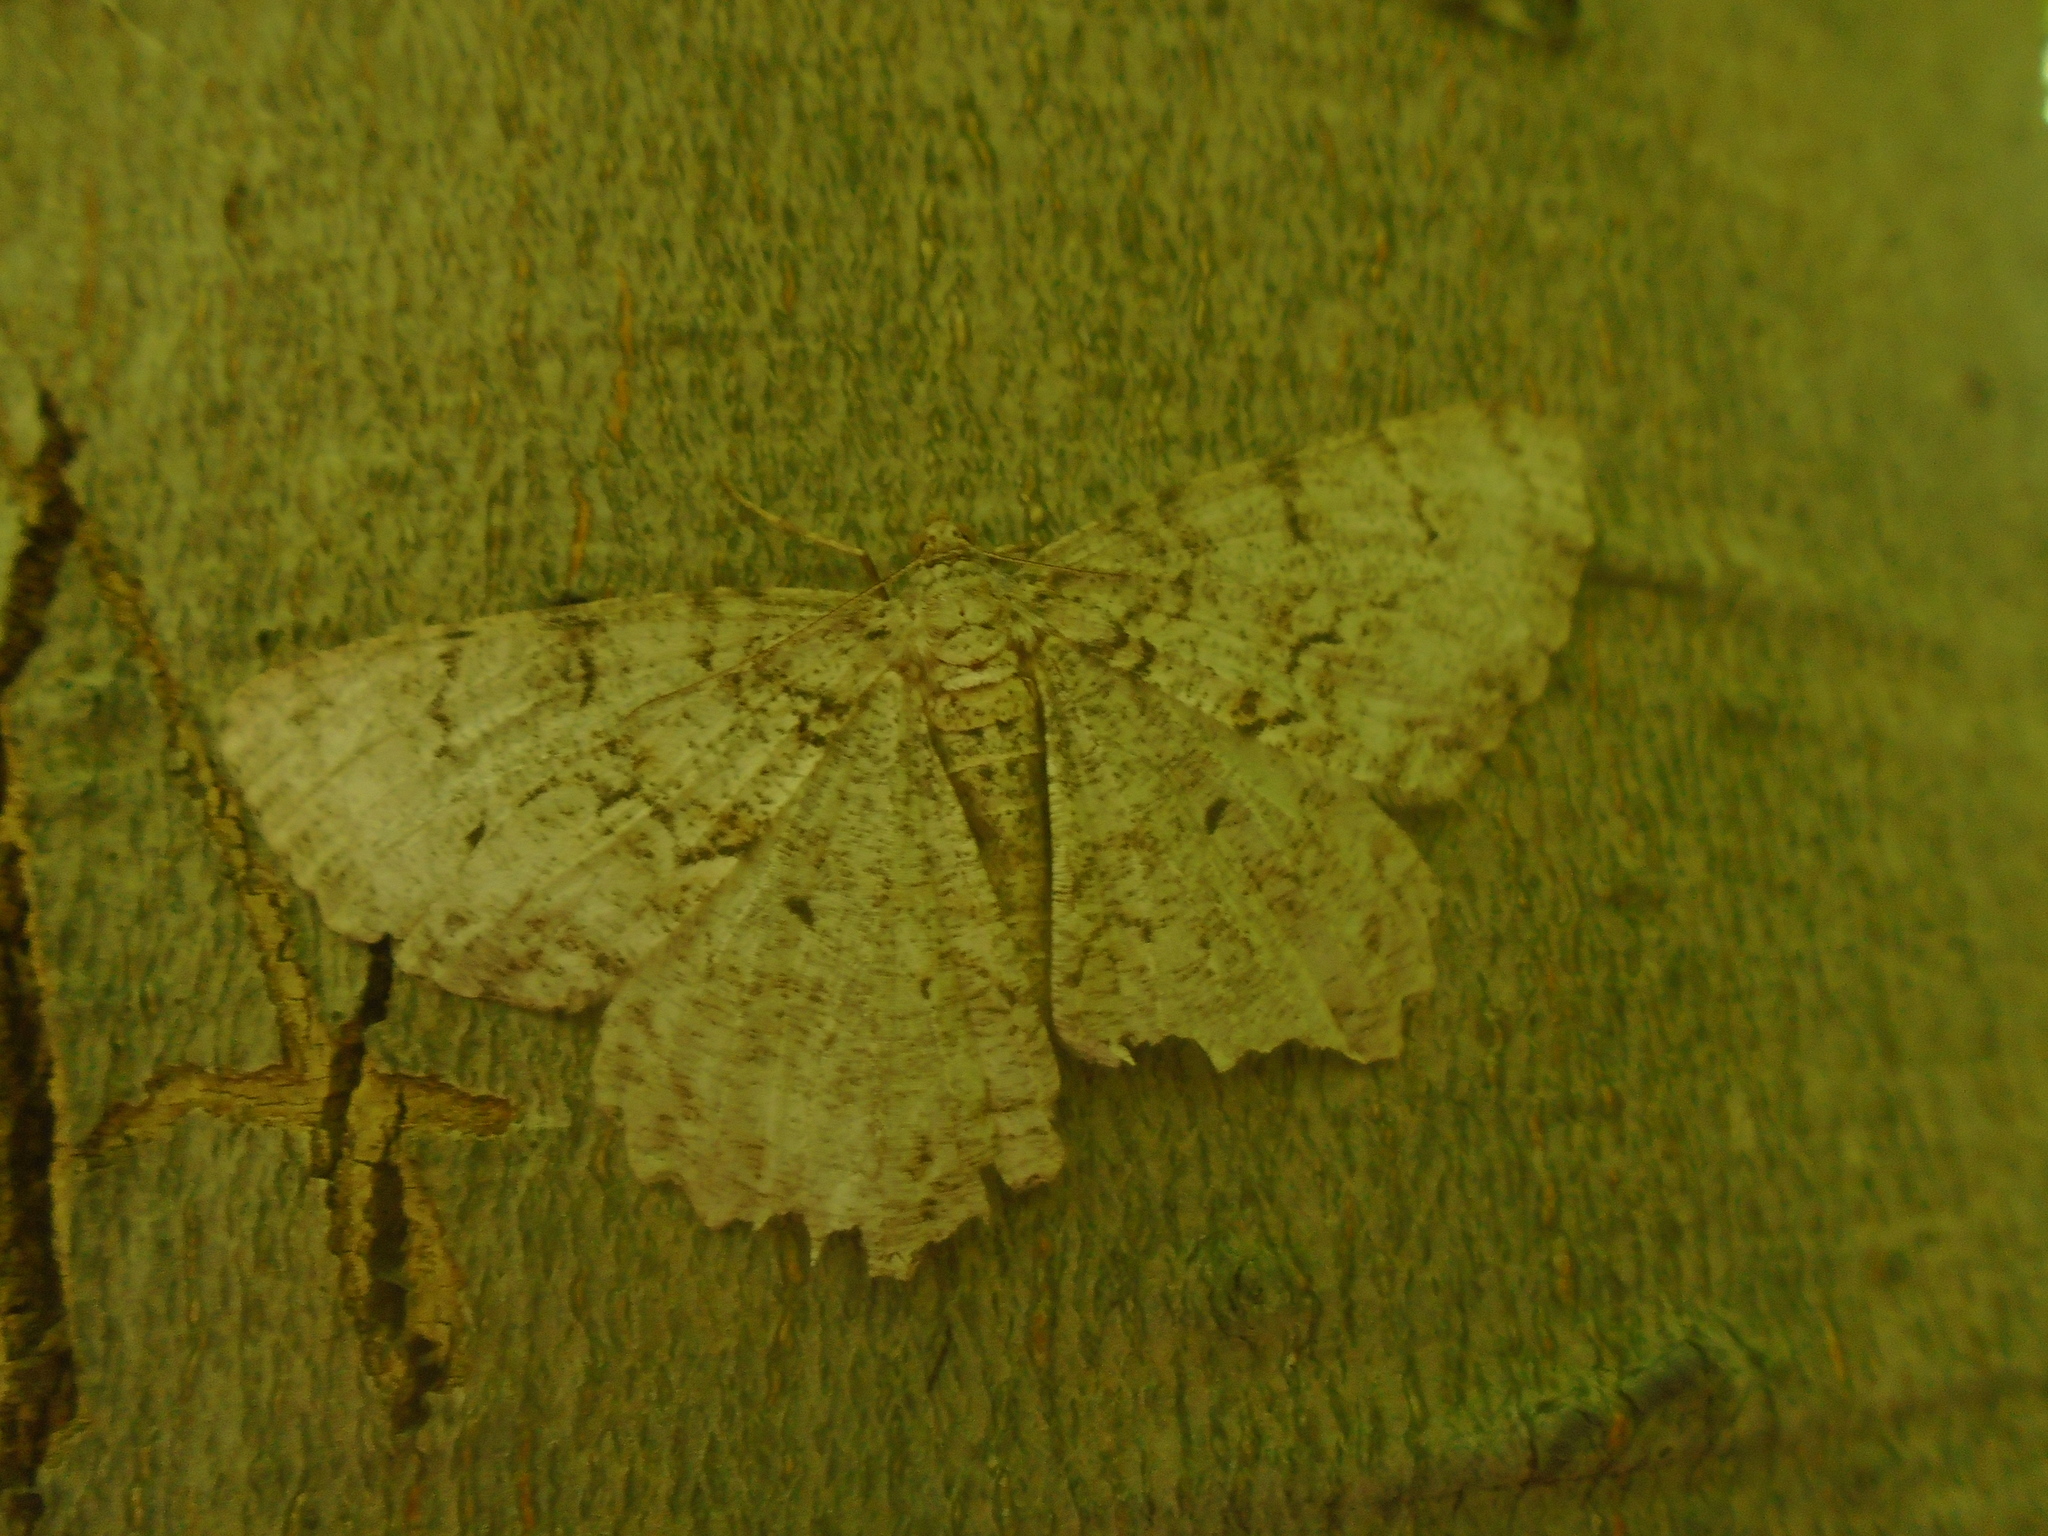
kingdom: Animalia
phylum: Arthropoda
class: Insecta
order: Lepidoptera
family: Geometridae
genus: Epimecis
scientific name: Epimecis hortaria
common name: Tulip-tree beauty
